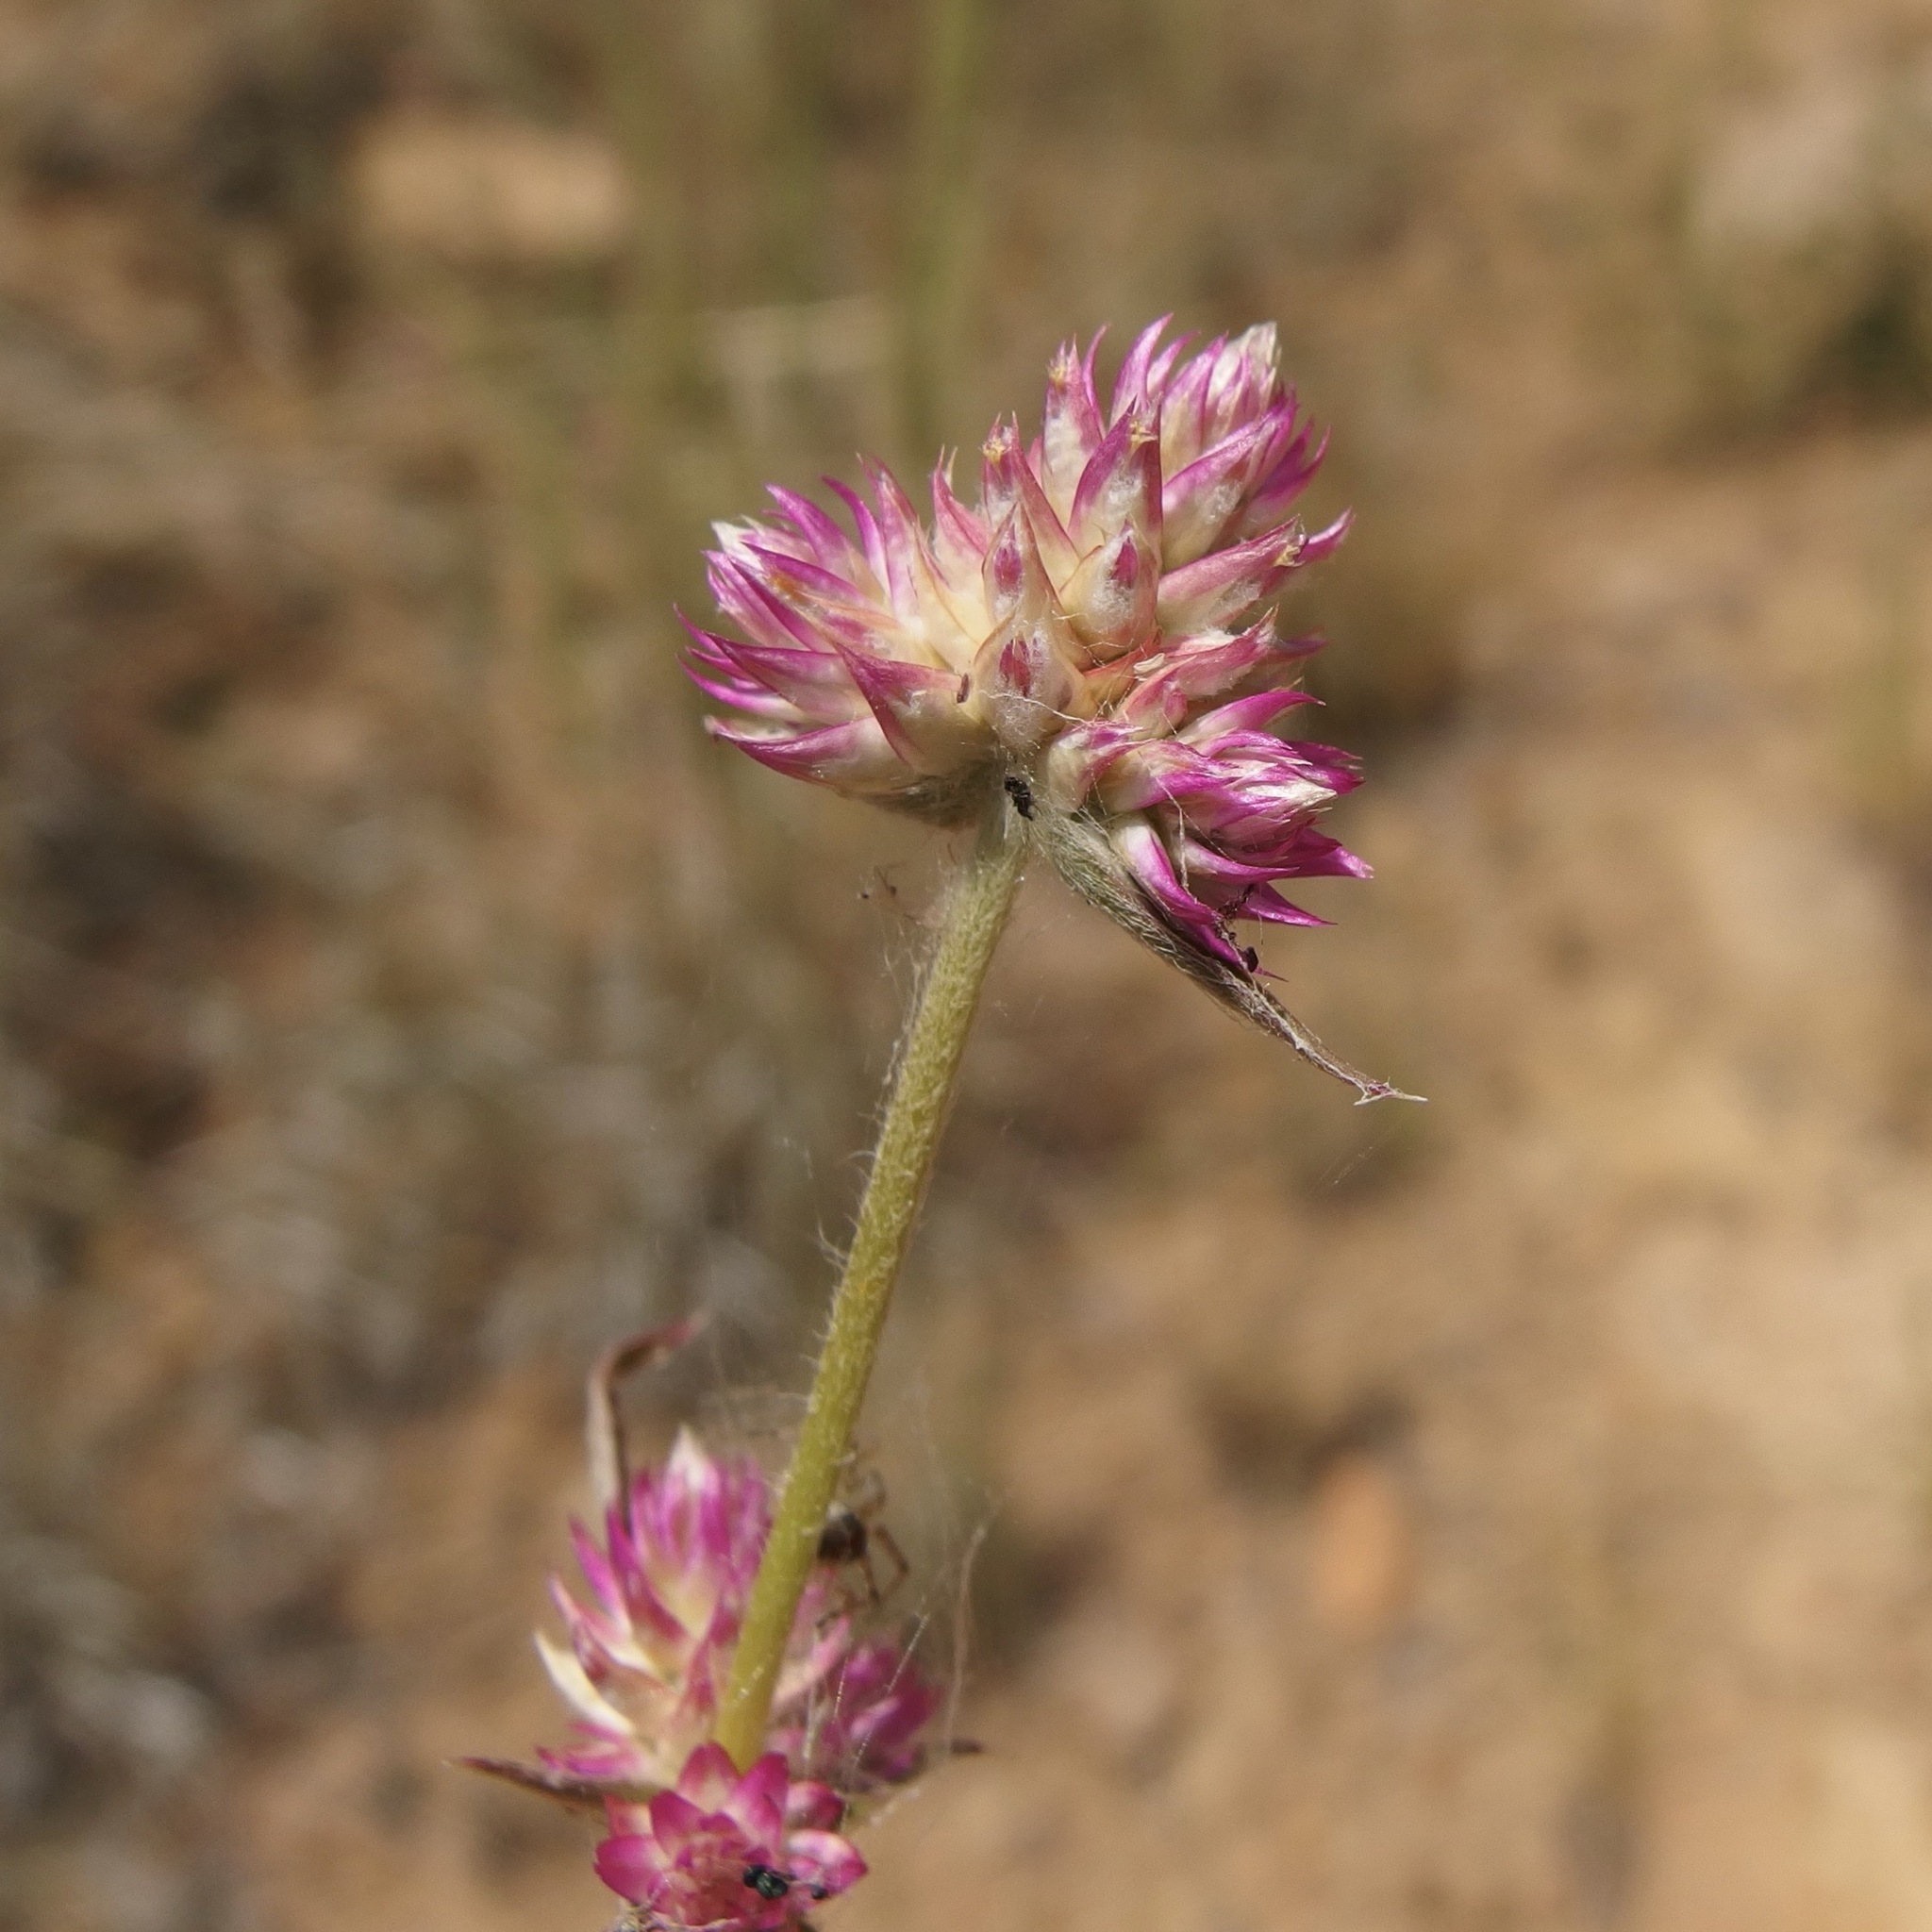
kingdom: Plantae
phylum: Tracheophyta
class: Magnoliopsida
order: Caryophyllales
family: Amaranthaceae
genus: Gomphrena
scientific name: Gomphrena sonorae
